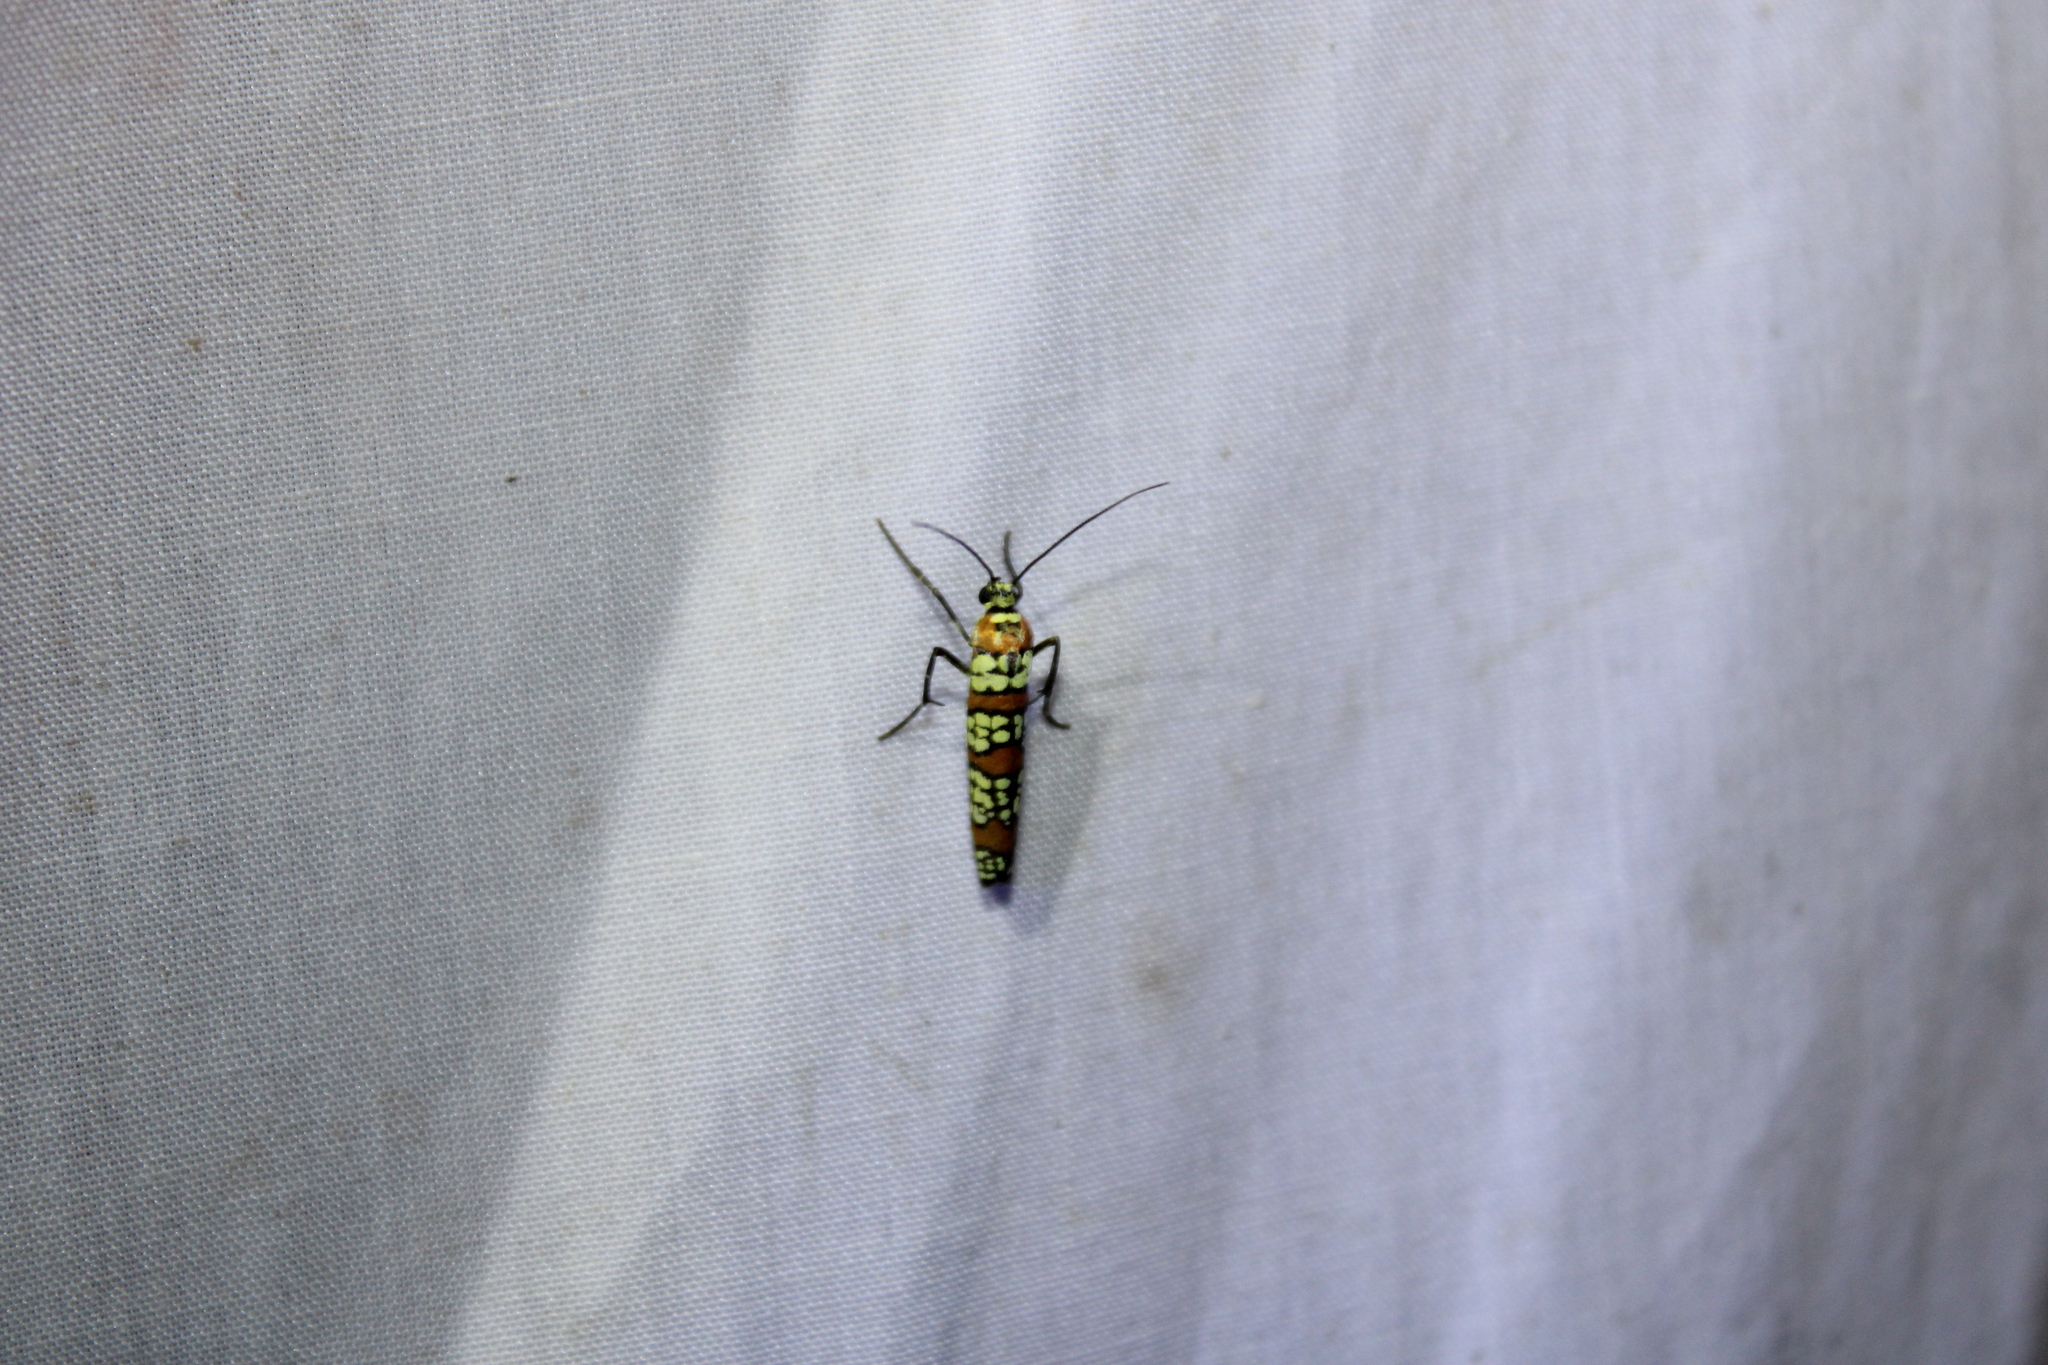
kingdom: Animalia
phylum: Arthropoda
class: Insecta
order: Lepidoptera
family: Attevidae
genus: Atteva
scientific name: Atteva punctella
